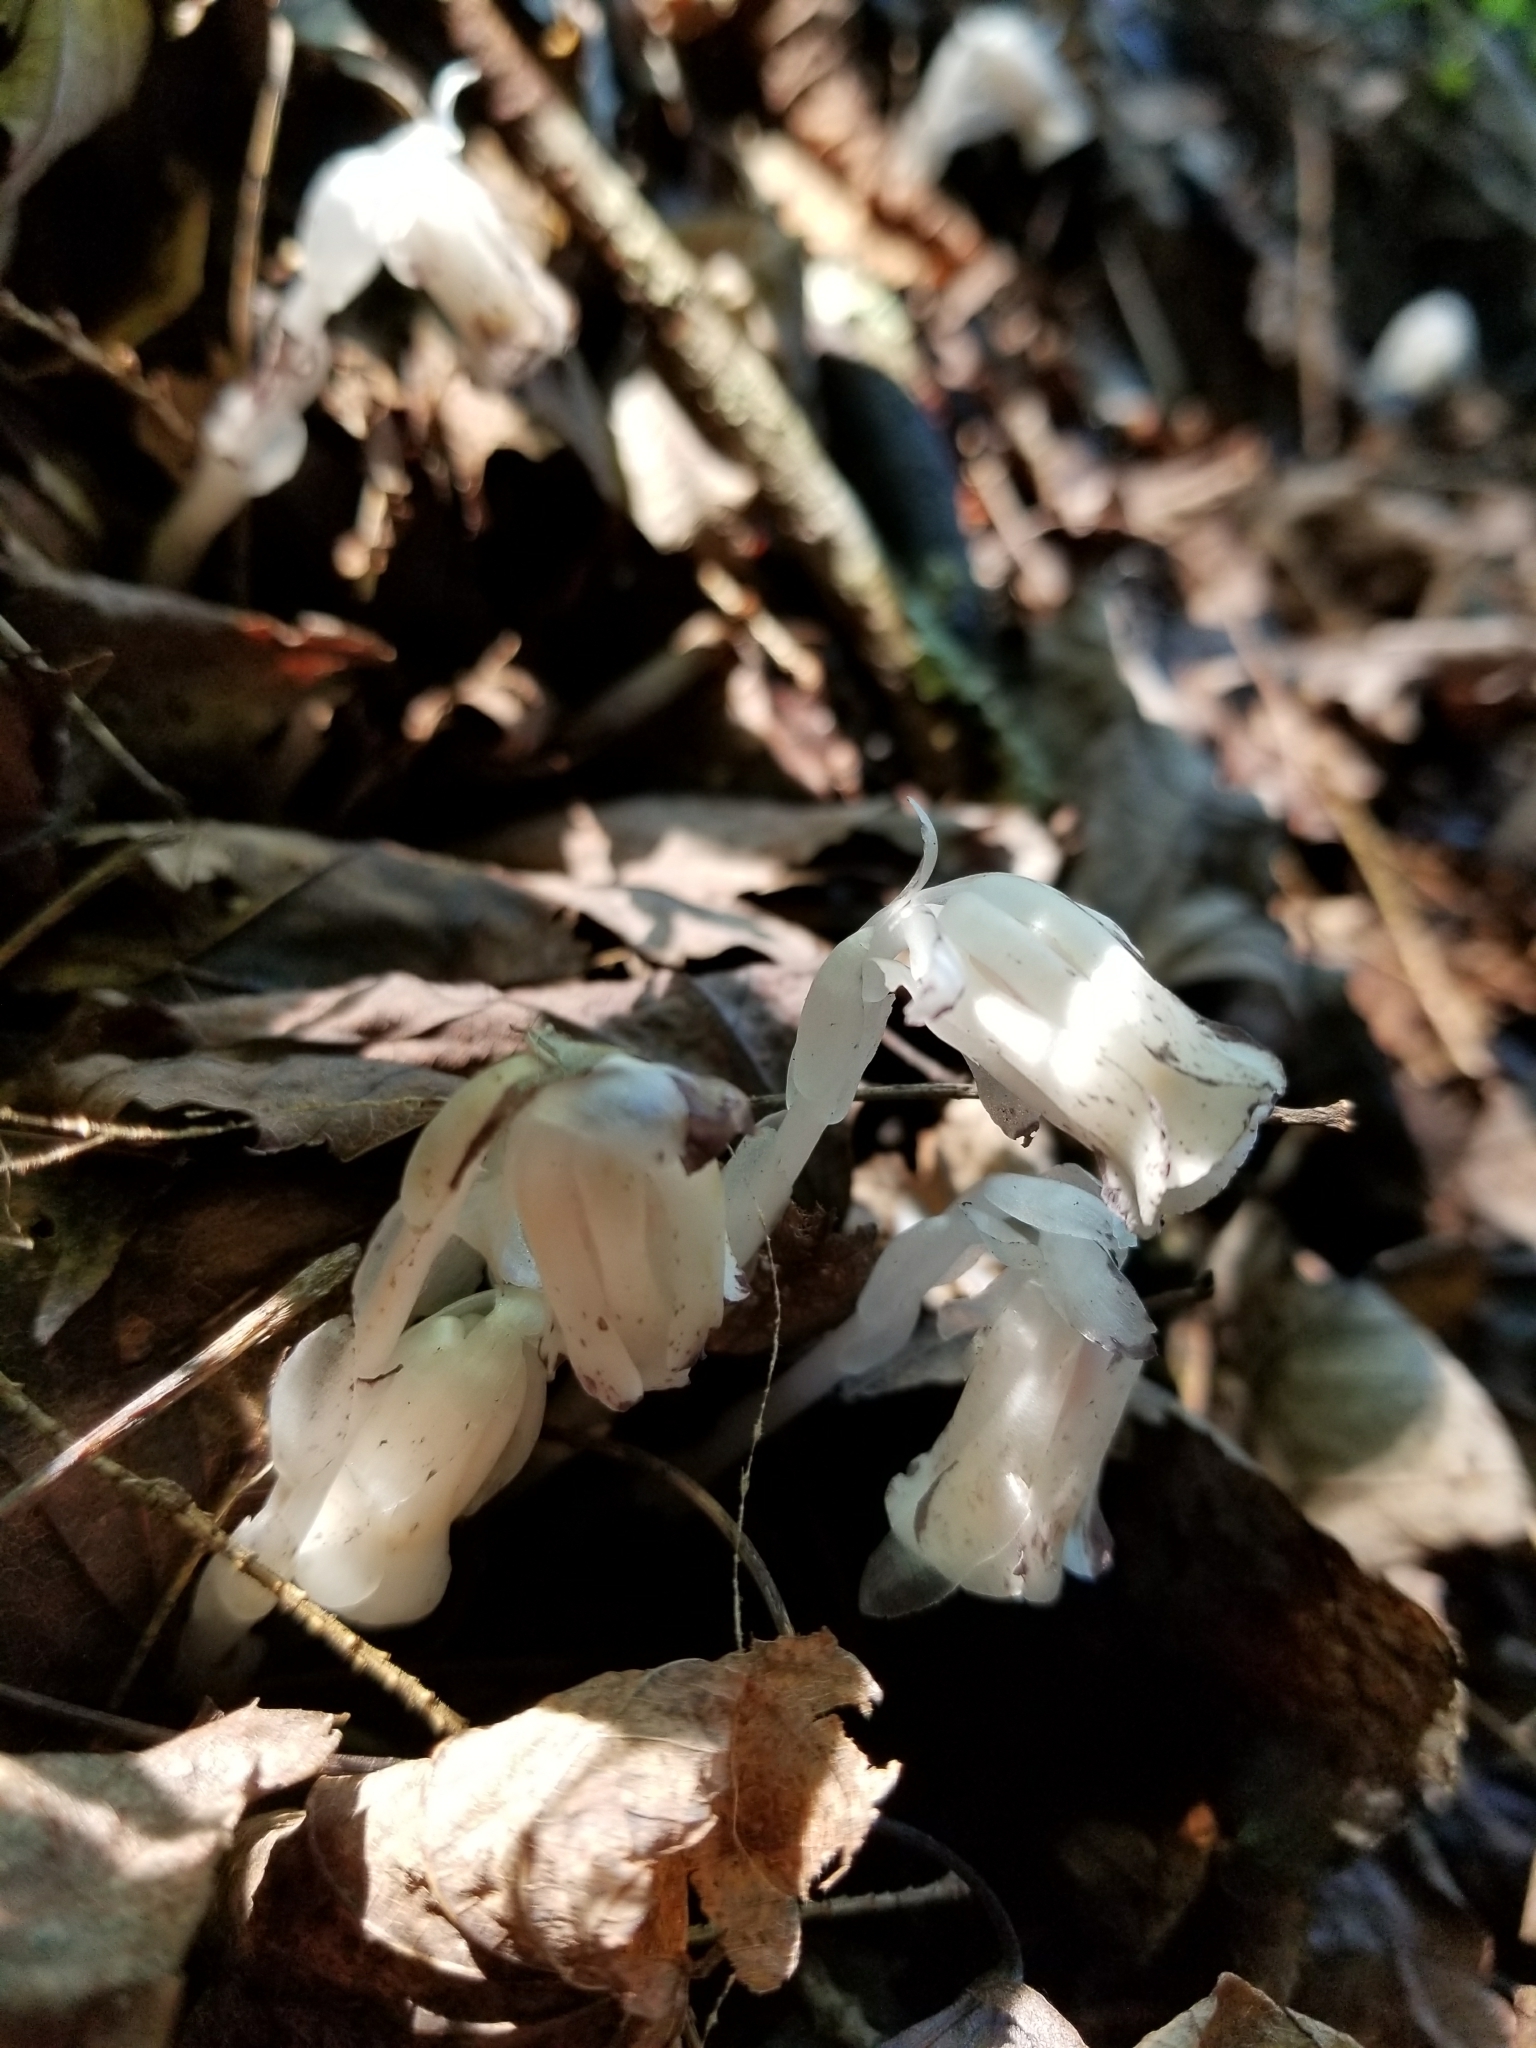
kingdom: Plantae
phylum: Tracheophyta
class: Magnoliopsida
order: Ericales
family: Ericaceae
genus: Monotropa
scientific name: Monotropa uniflora
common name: Convulsion root
